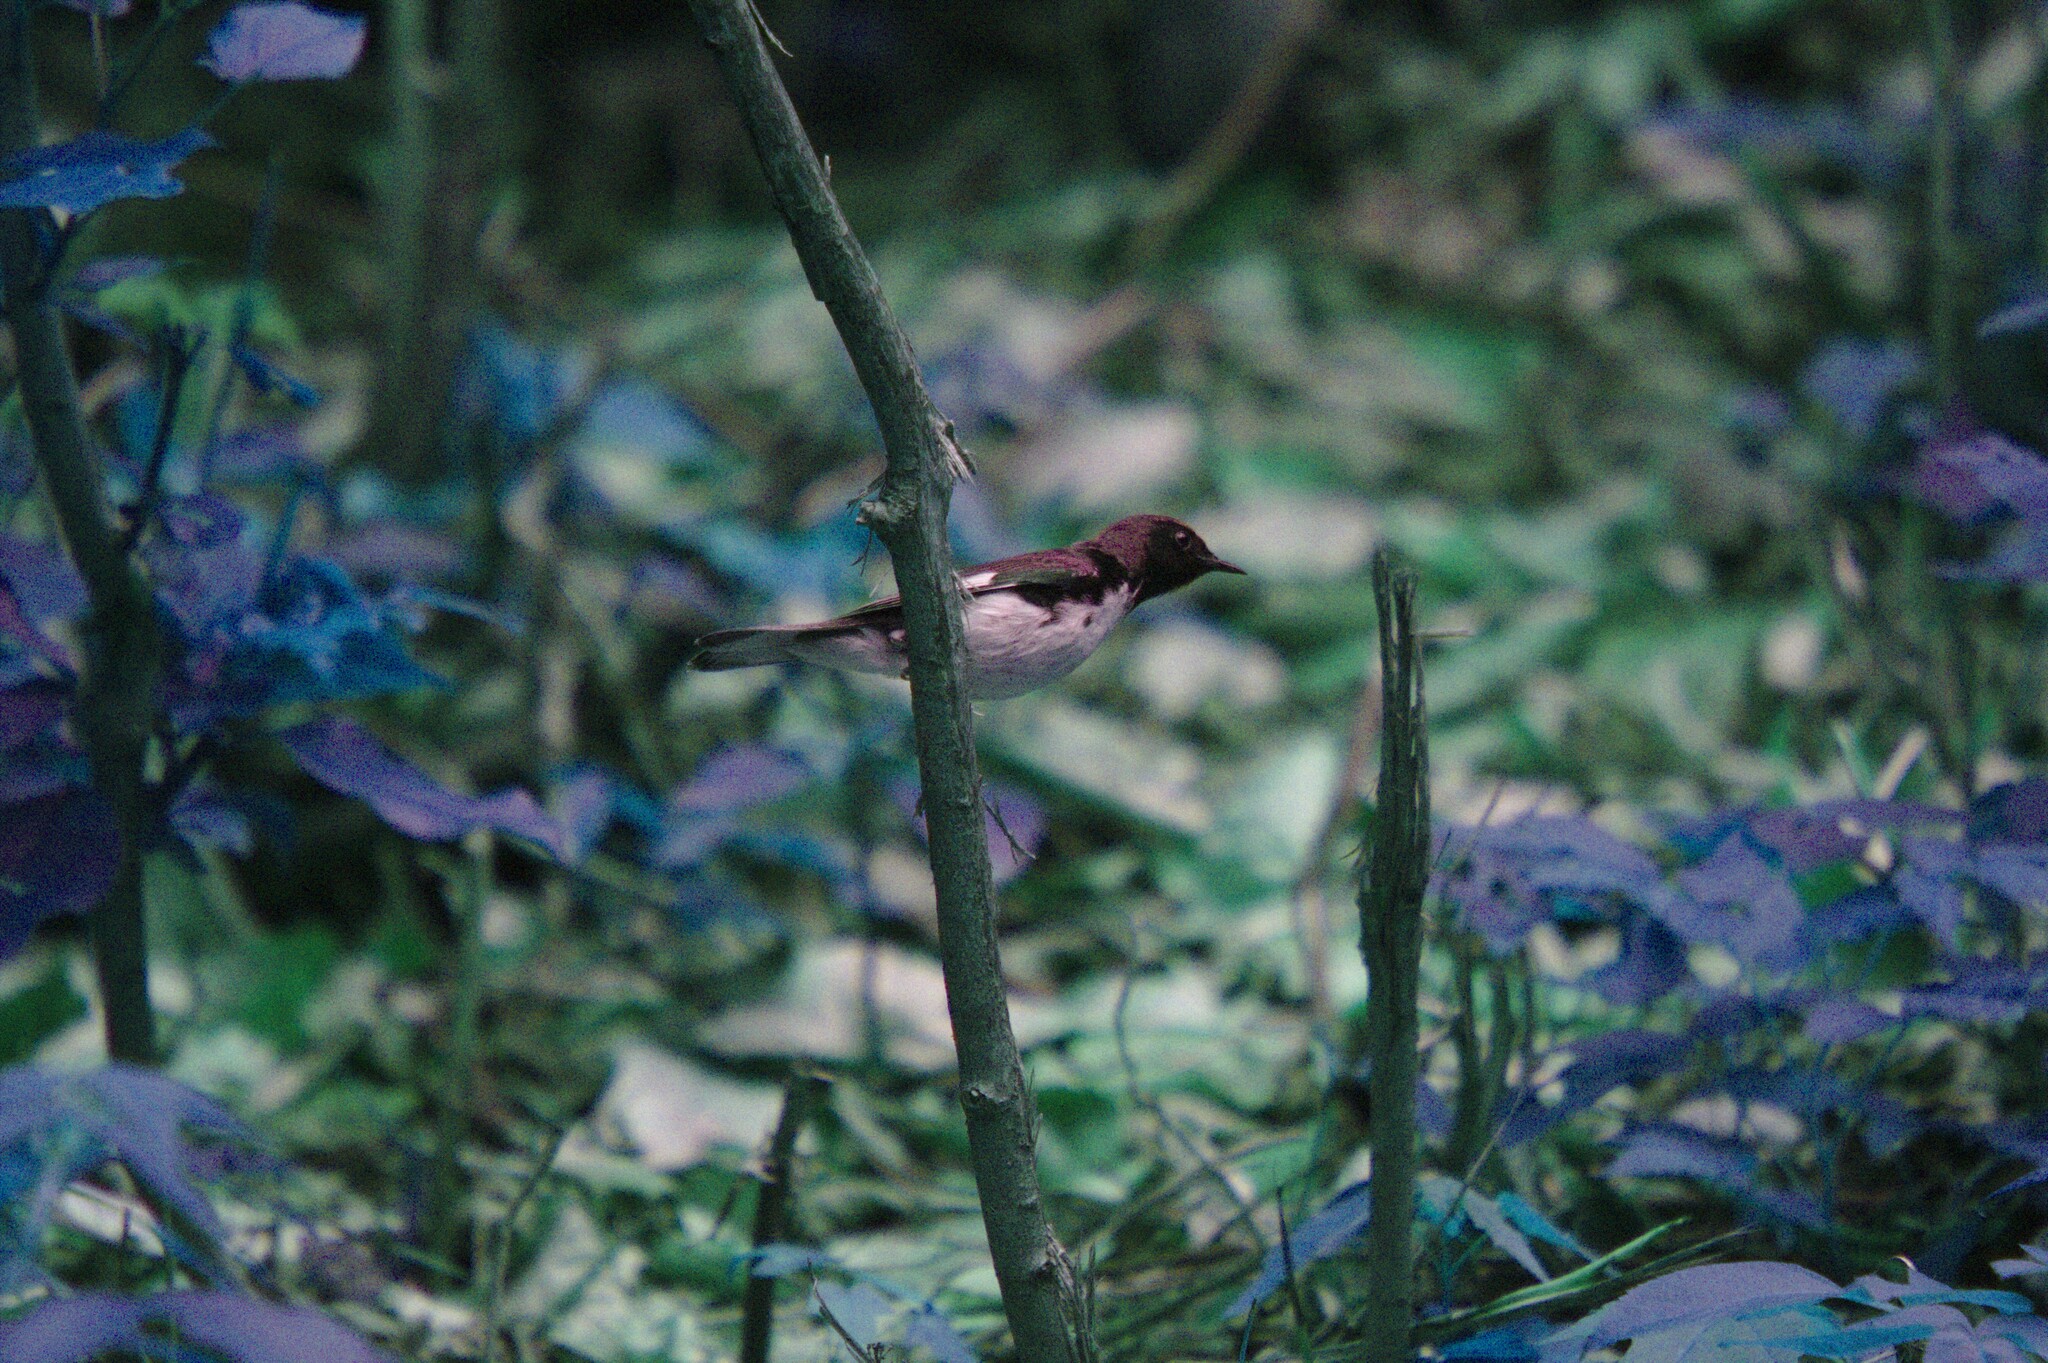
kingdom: Animalia
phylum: Chordata
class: Aves
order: Passeriformes
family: Parulidae
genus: Setophaga
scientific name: Setophaga caerulescens
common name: Black-throated blue warbler
